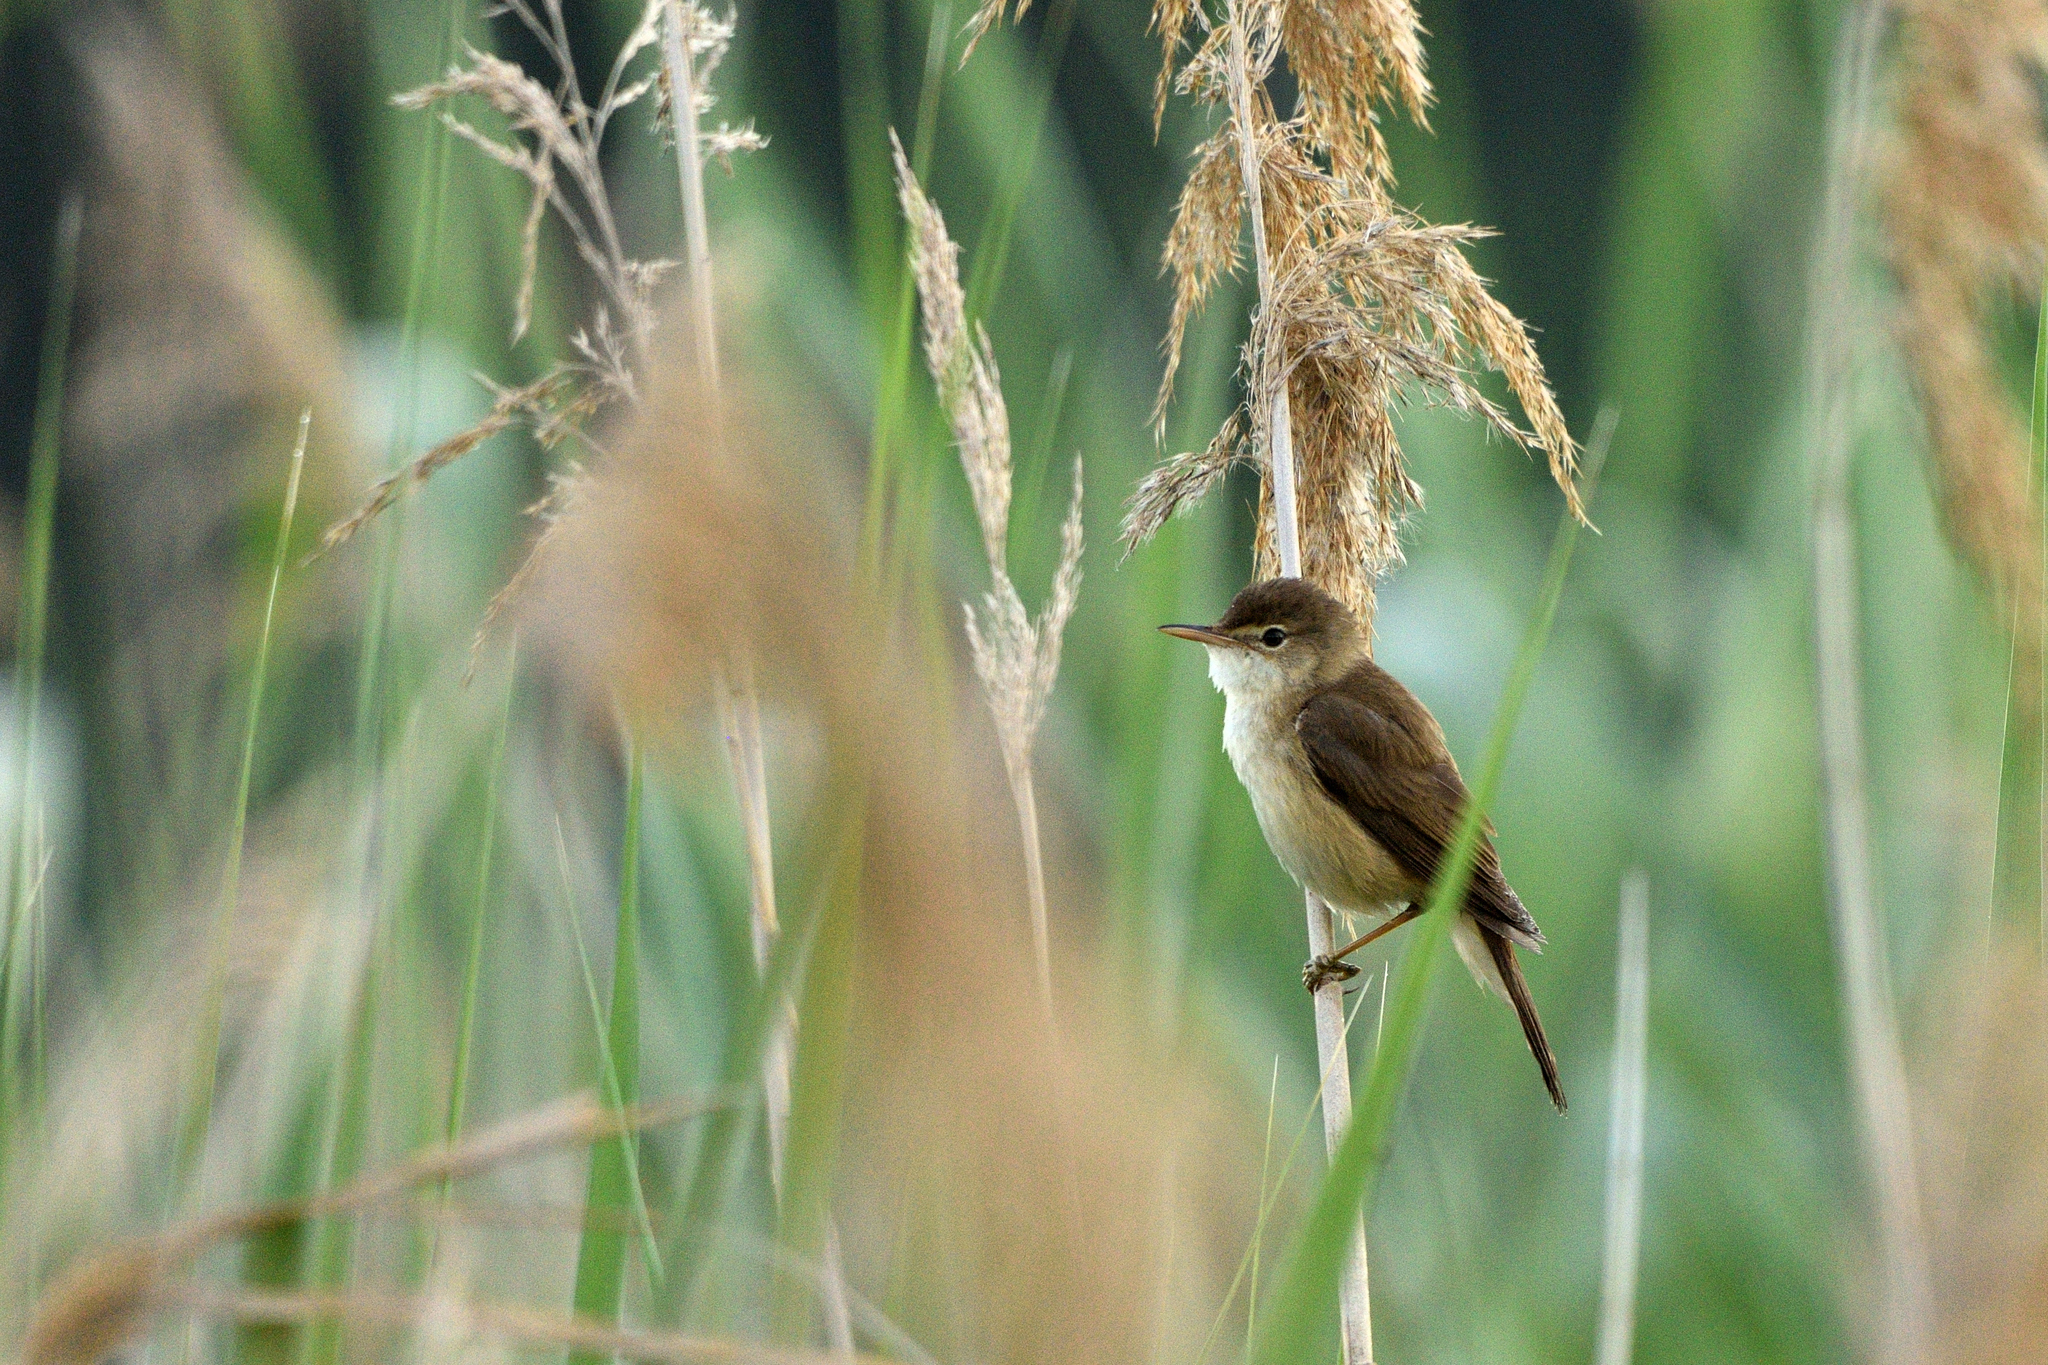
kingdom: Animalia
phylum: Chordata
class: Aves
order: Passeriformes
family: Acrocephalidae
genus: Acrocephalus
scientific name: Acrocephalus scirpaceus
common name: Eurasian reed warbler
